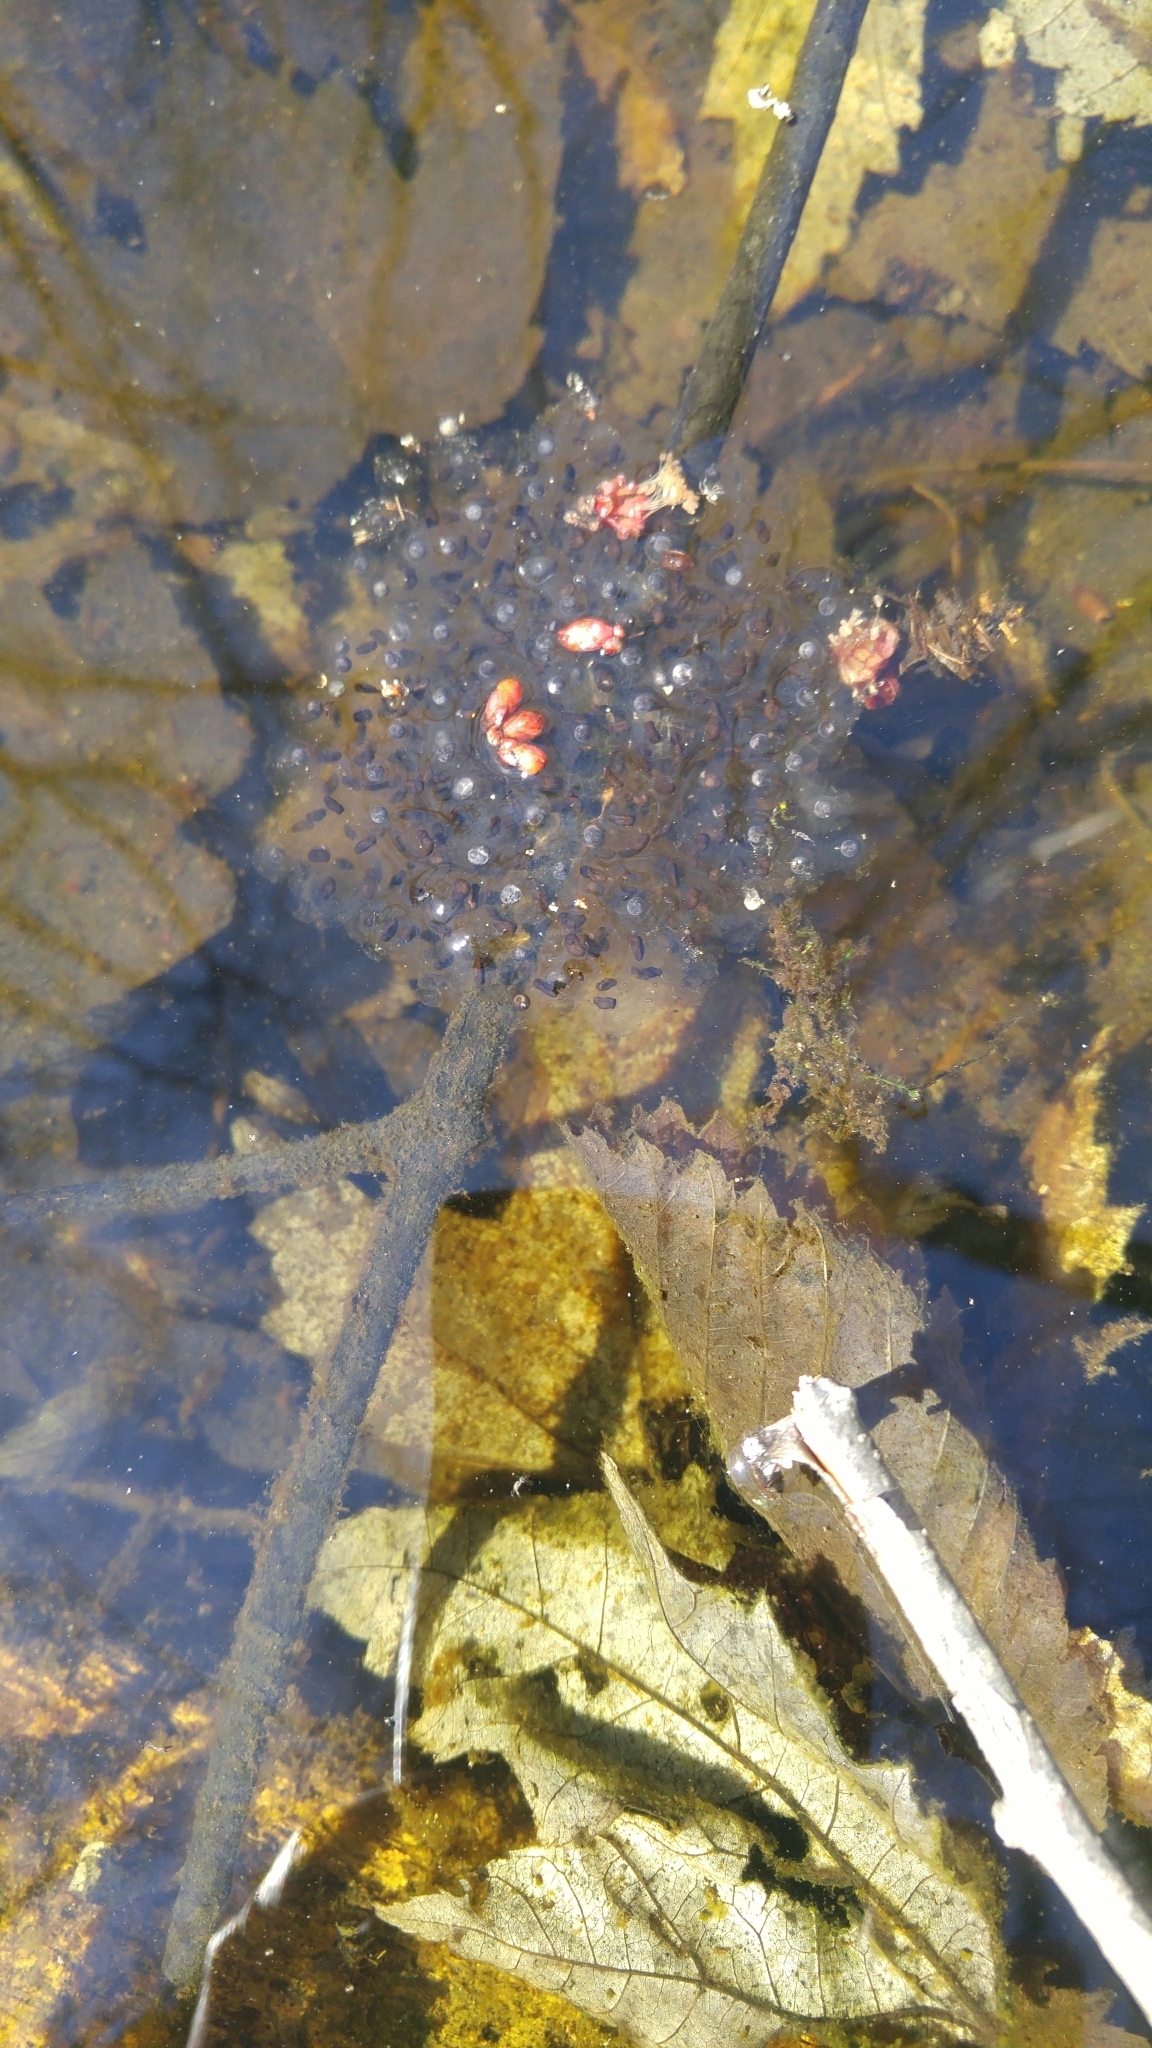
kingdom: Animalia
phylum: Chordata
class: Amphibia
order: Anura
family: Ranidae
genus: Lithobates
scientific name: Lithobates sylvaticus
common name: Wood frog
